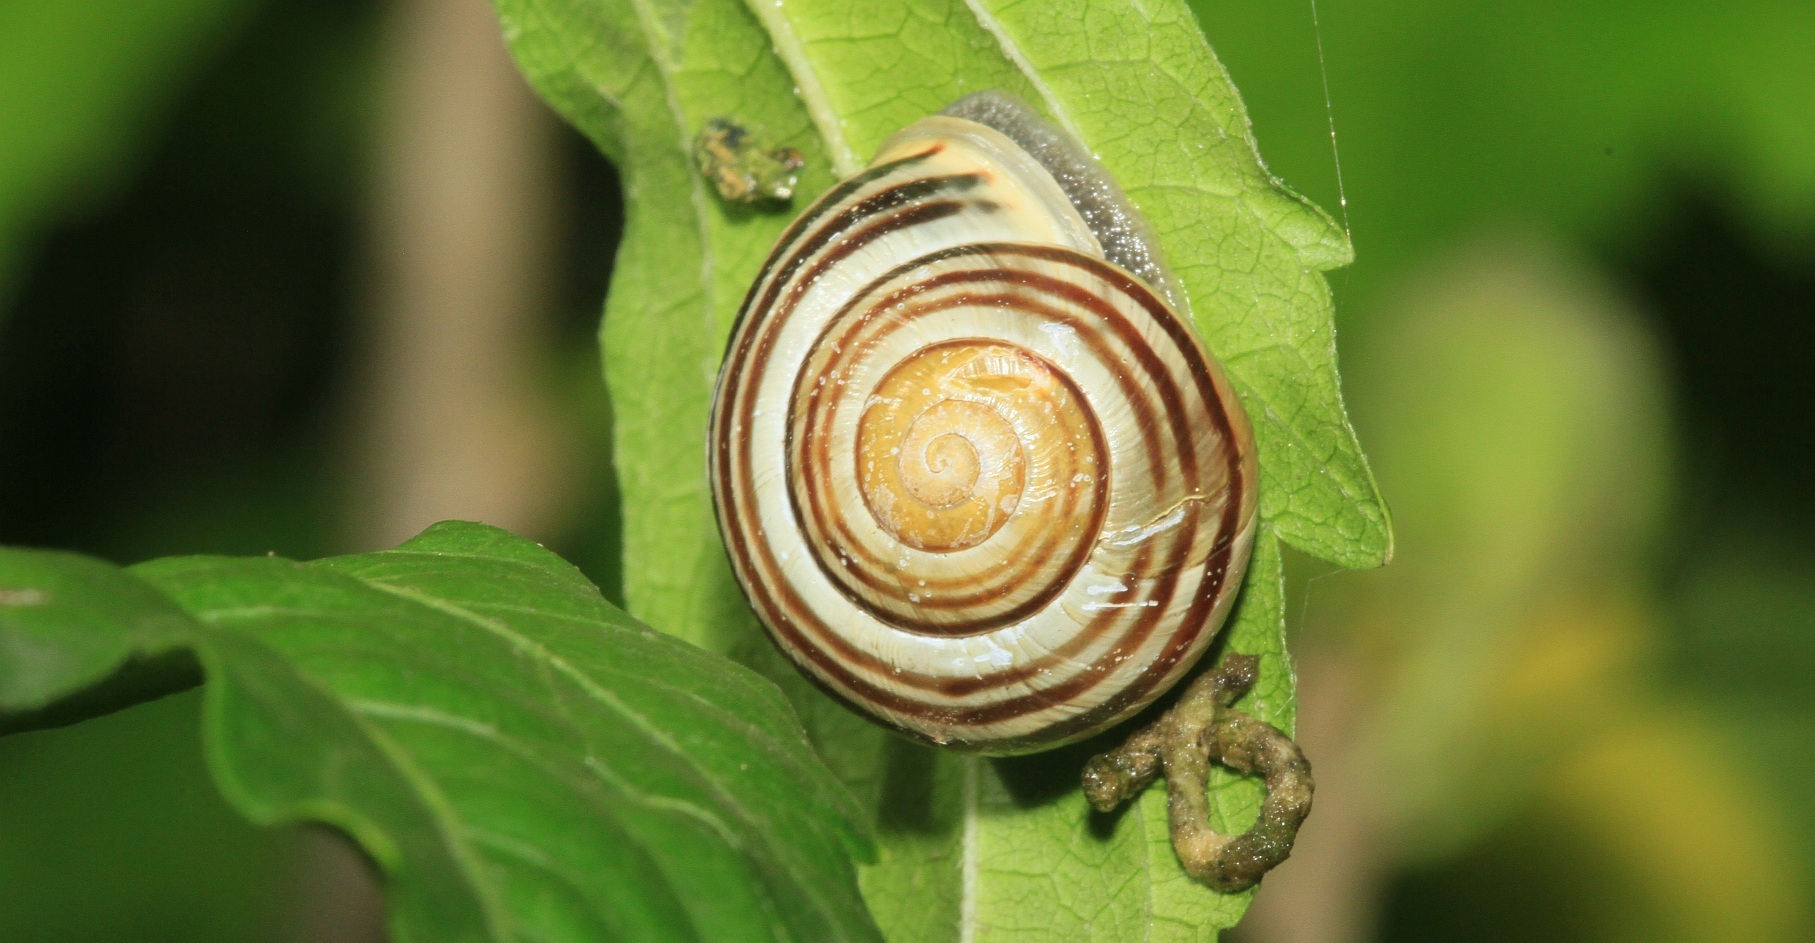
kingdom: Animalia
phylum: Mollusca
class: Gastropoda
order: Stylommatophora
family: Helicidae
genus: Cepaea
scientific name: Cepaea hortensis
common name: White-lip gardensnail
